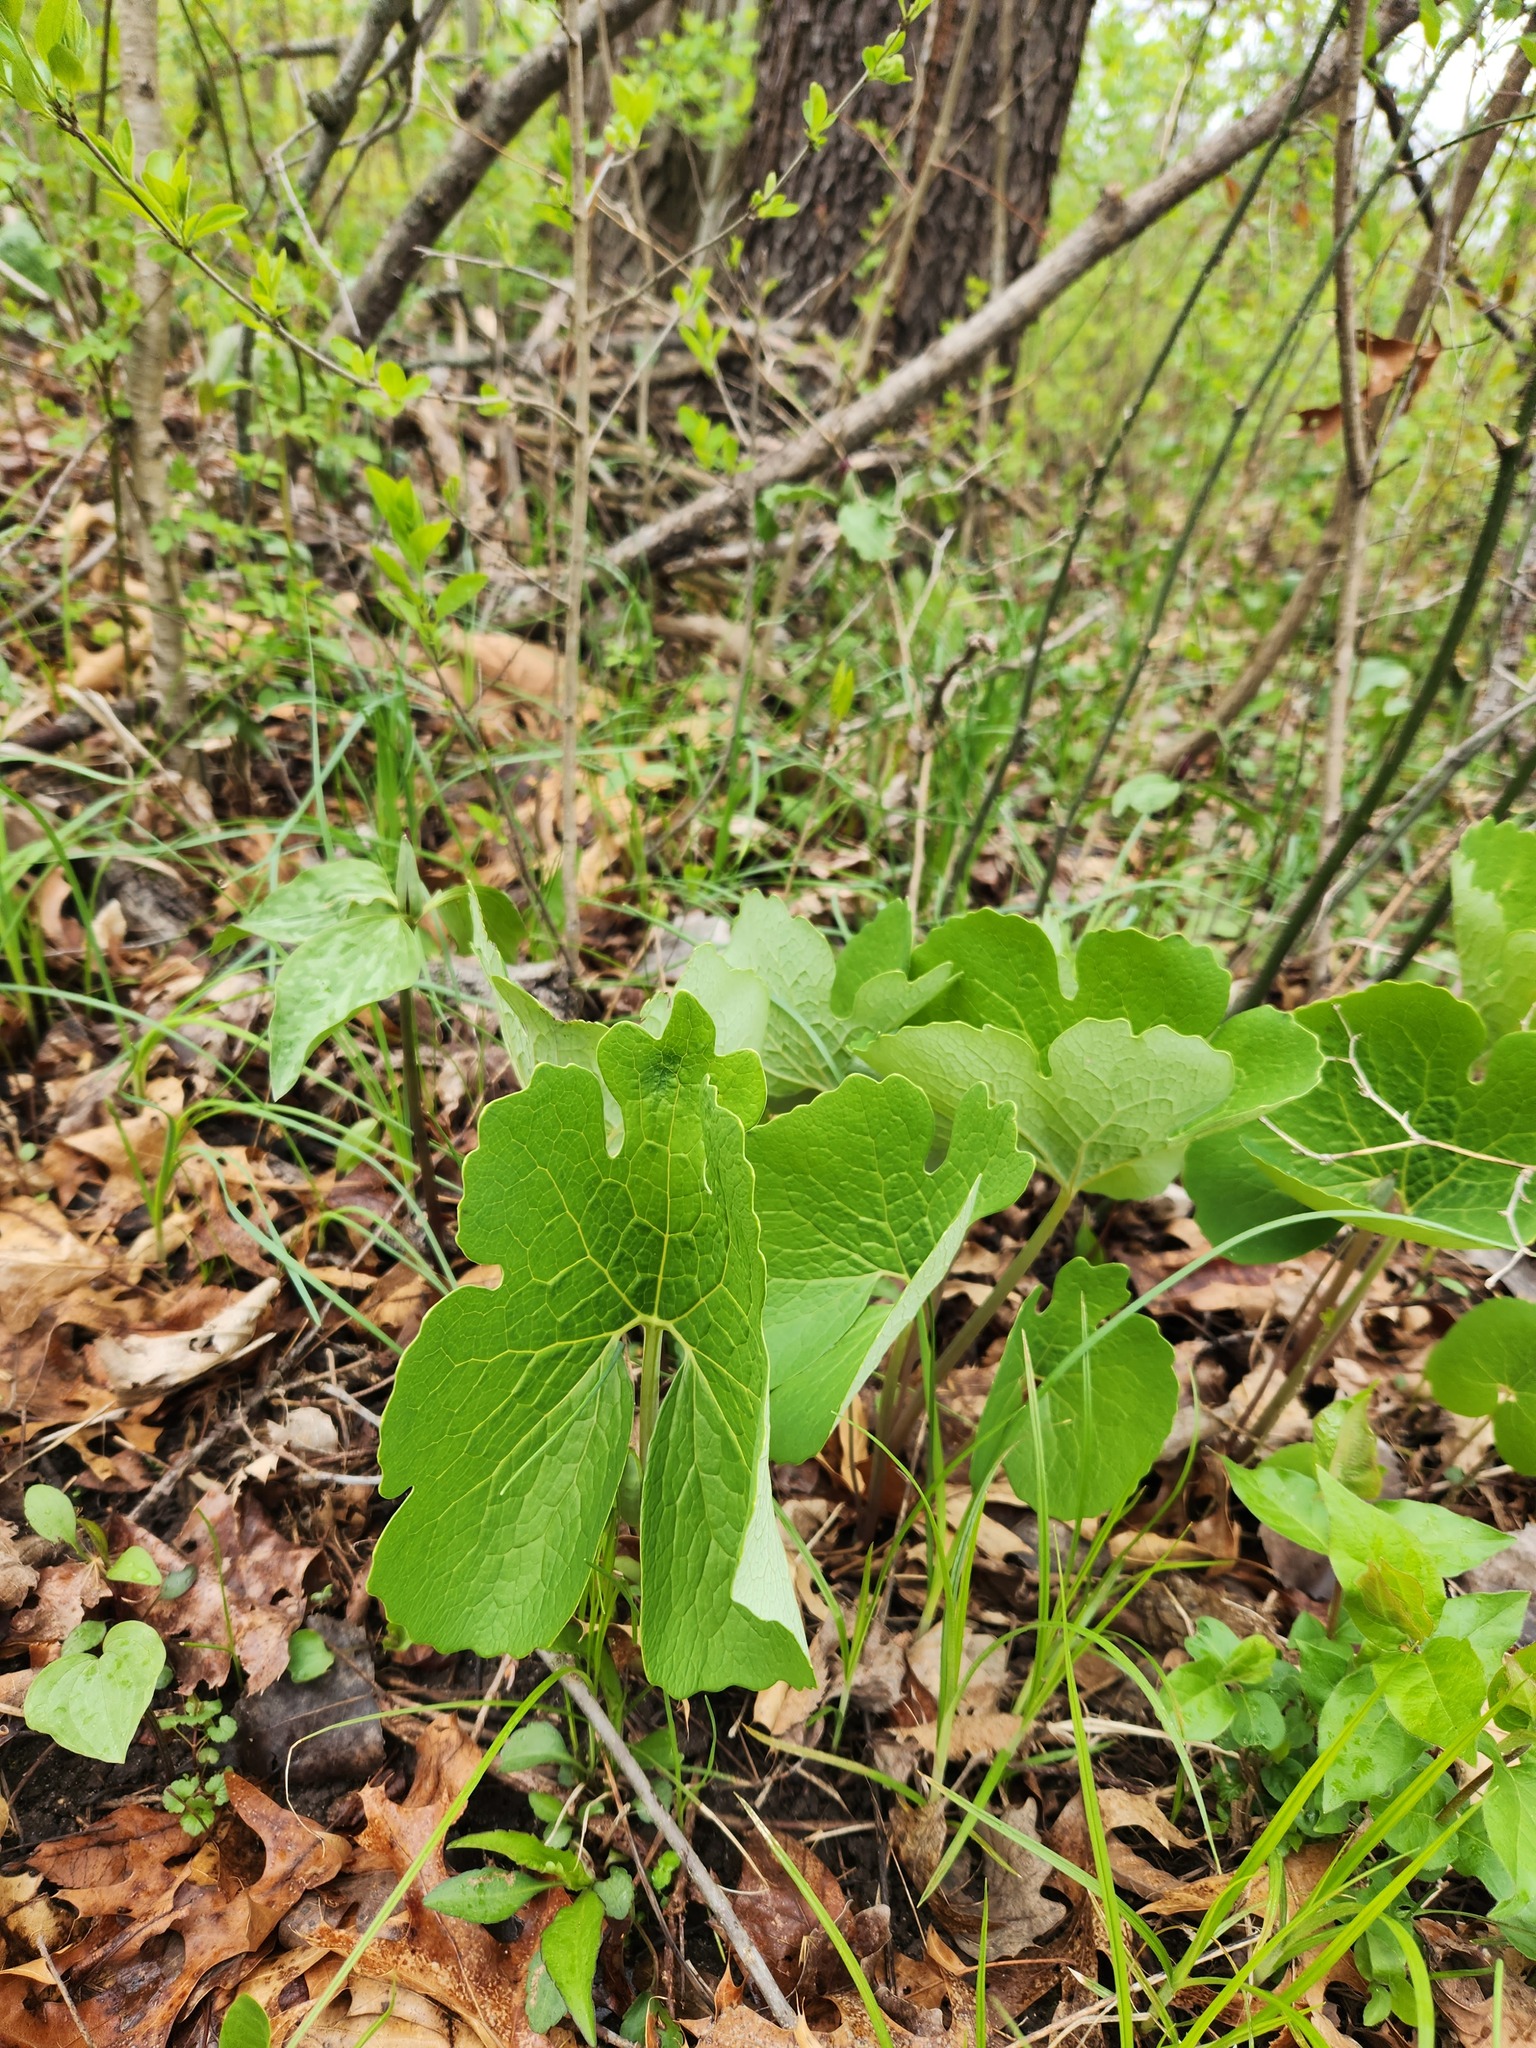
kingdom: Plantae
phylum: Tracheophyta
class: Magnoliopsida
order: Ranunculales
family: Papaveraceae
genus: Sanguinaria
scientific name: Sanguinaria canadensis
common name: Bloodroot
